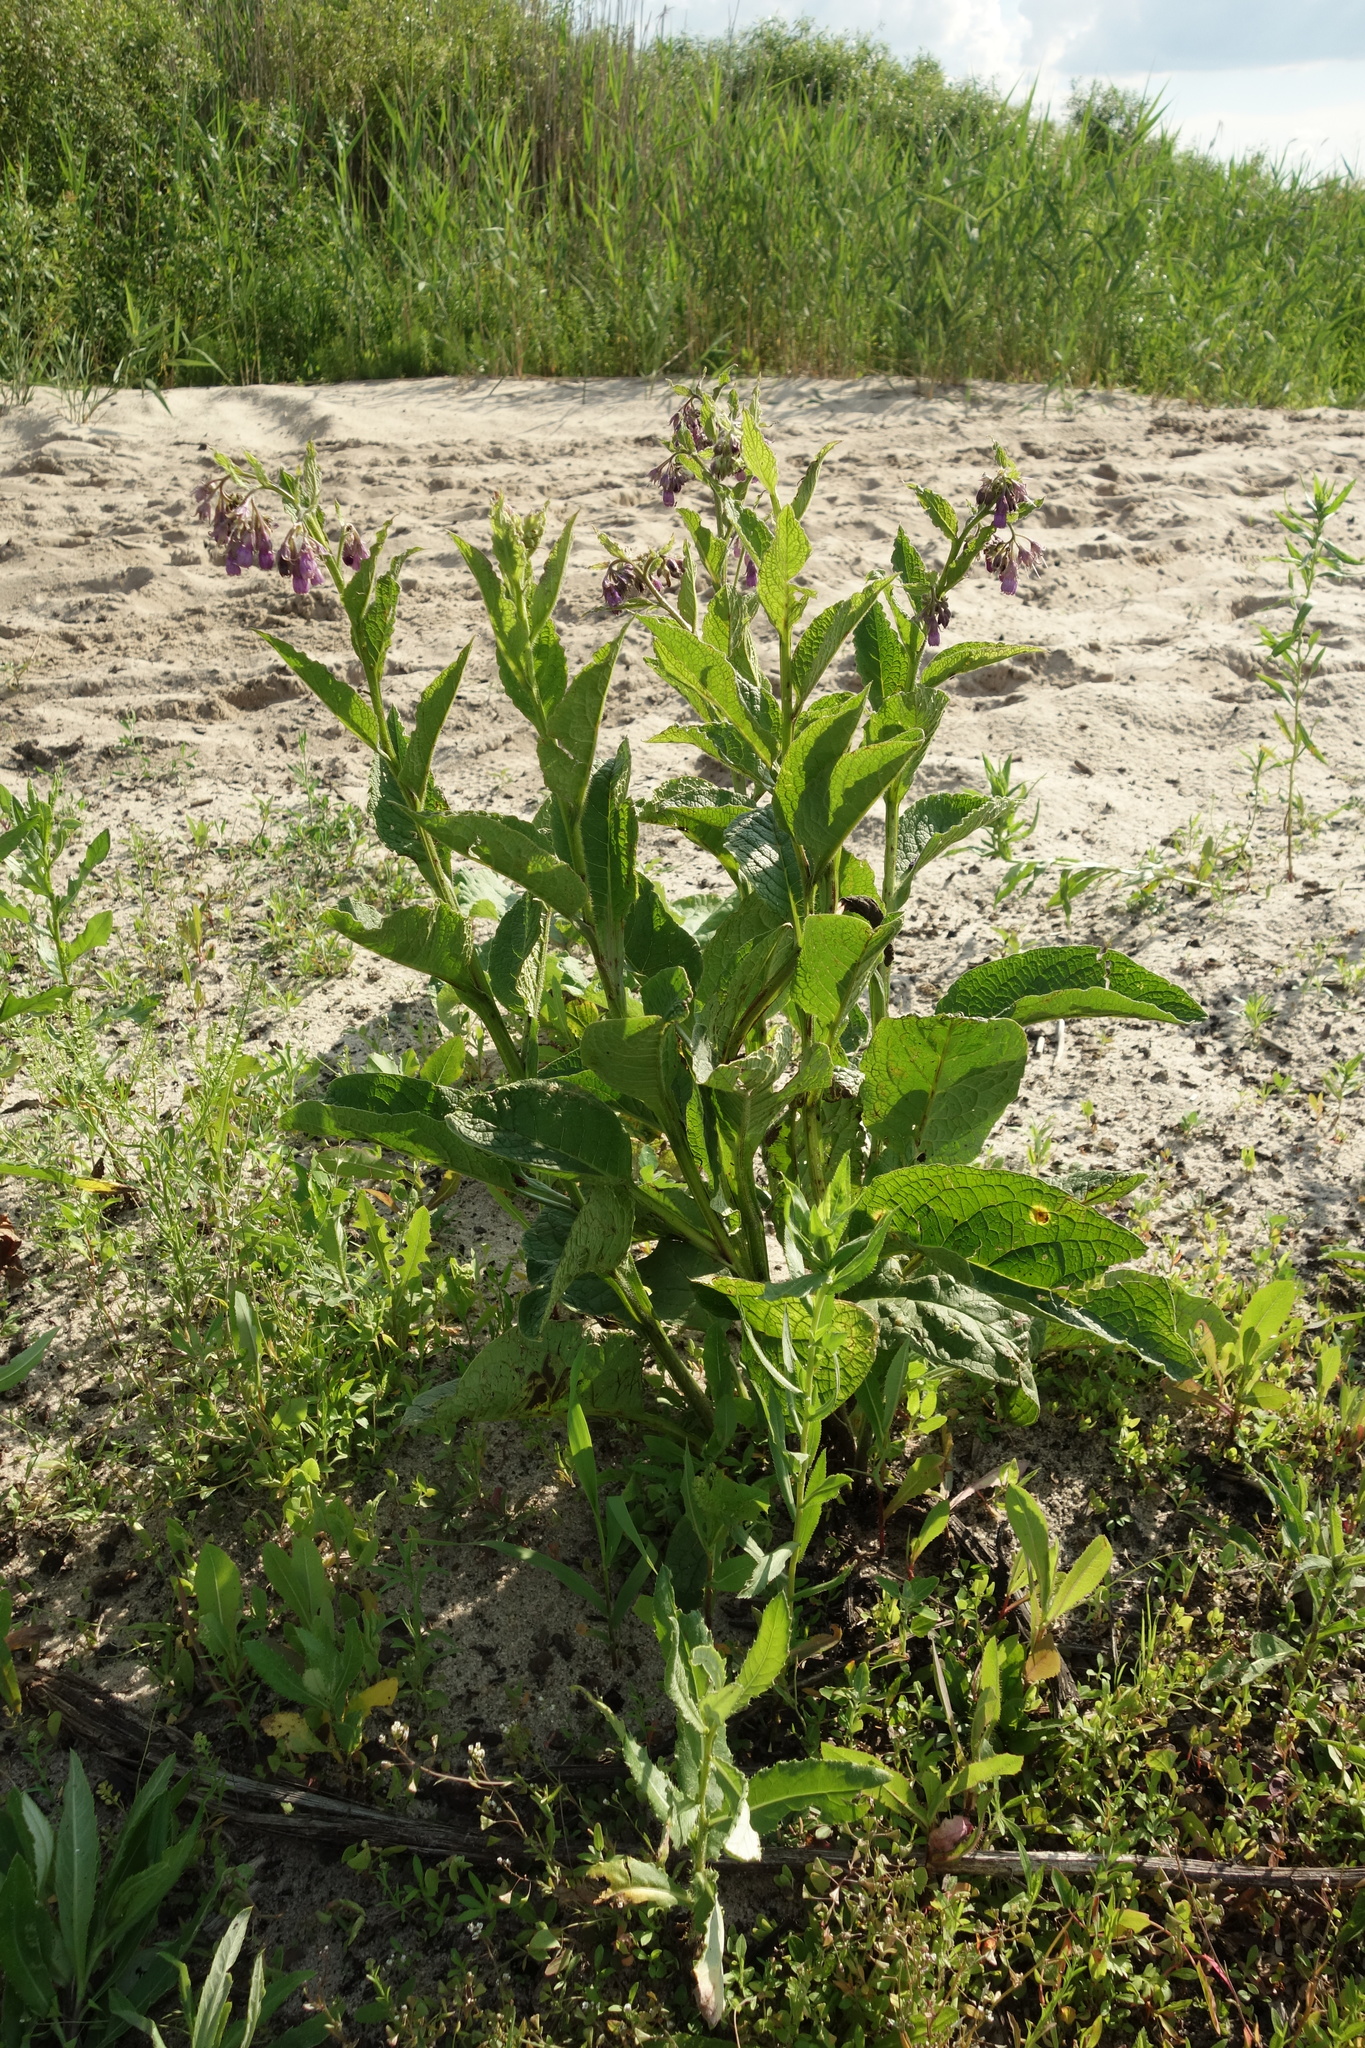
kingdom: Plantae
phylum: Tracheophyta
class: Magnoliopsida
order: Boraginales
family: Boraginaceae
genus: Symphytum
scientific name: Symphytum officinale
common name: Common comfrey
